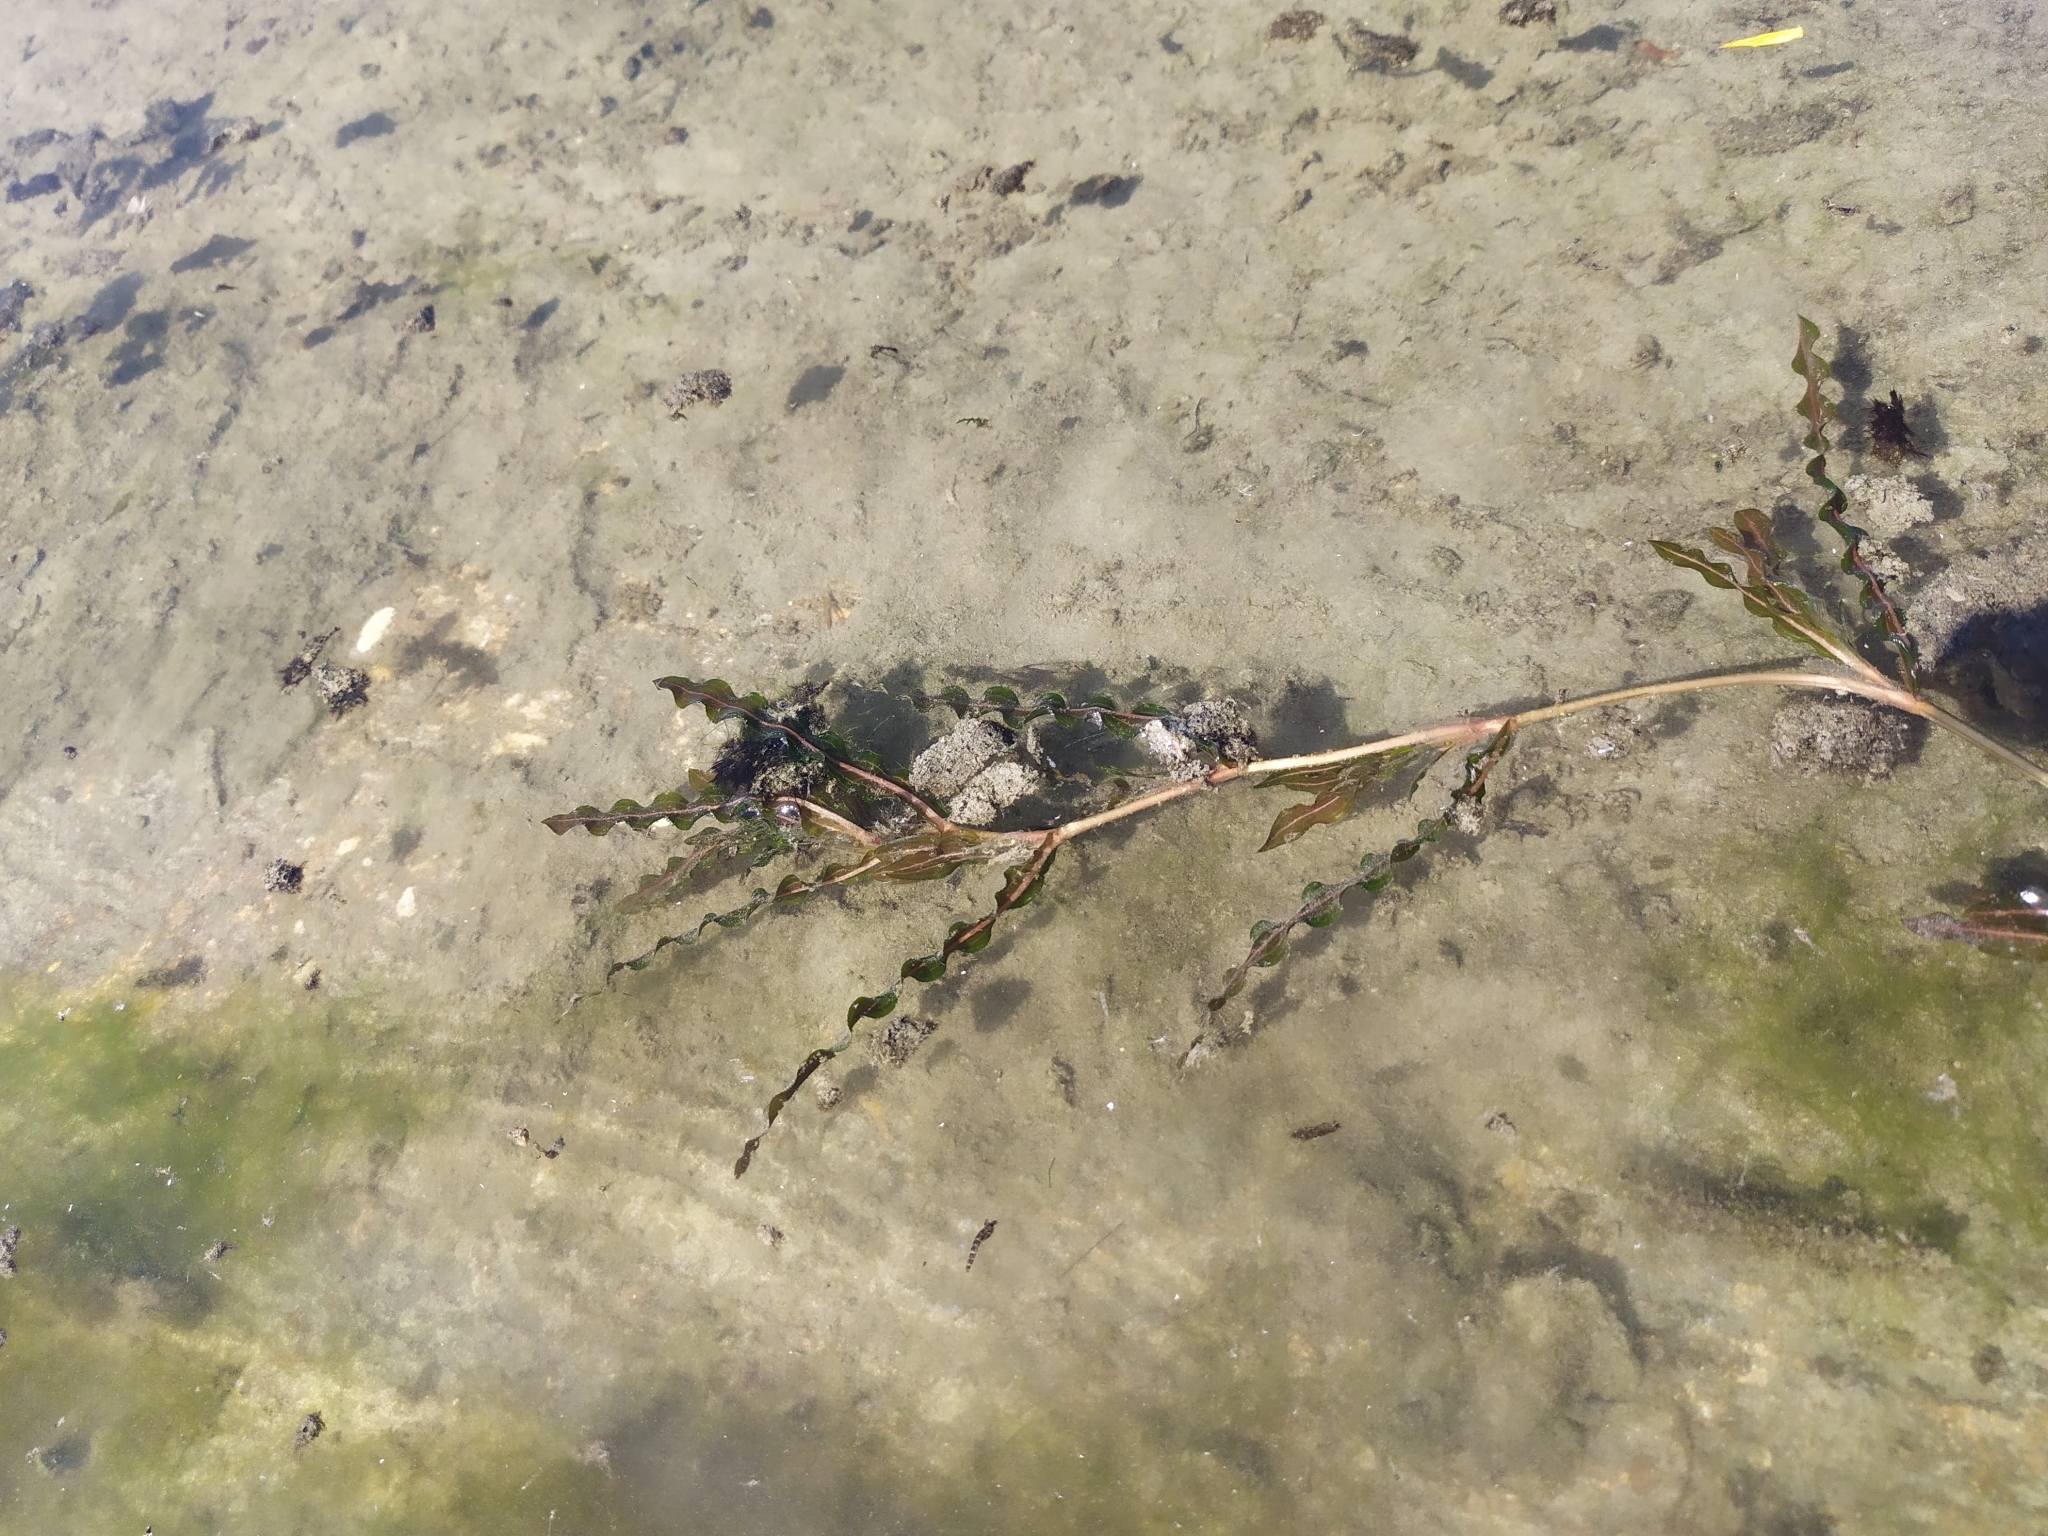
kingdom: Plantae
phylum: Tracheophyta
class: Liliopsida
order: Alismatales
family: Potamogetonaceae
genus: Potamogeton
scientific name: Potamogeton crispus
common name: Curled pondweed
